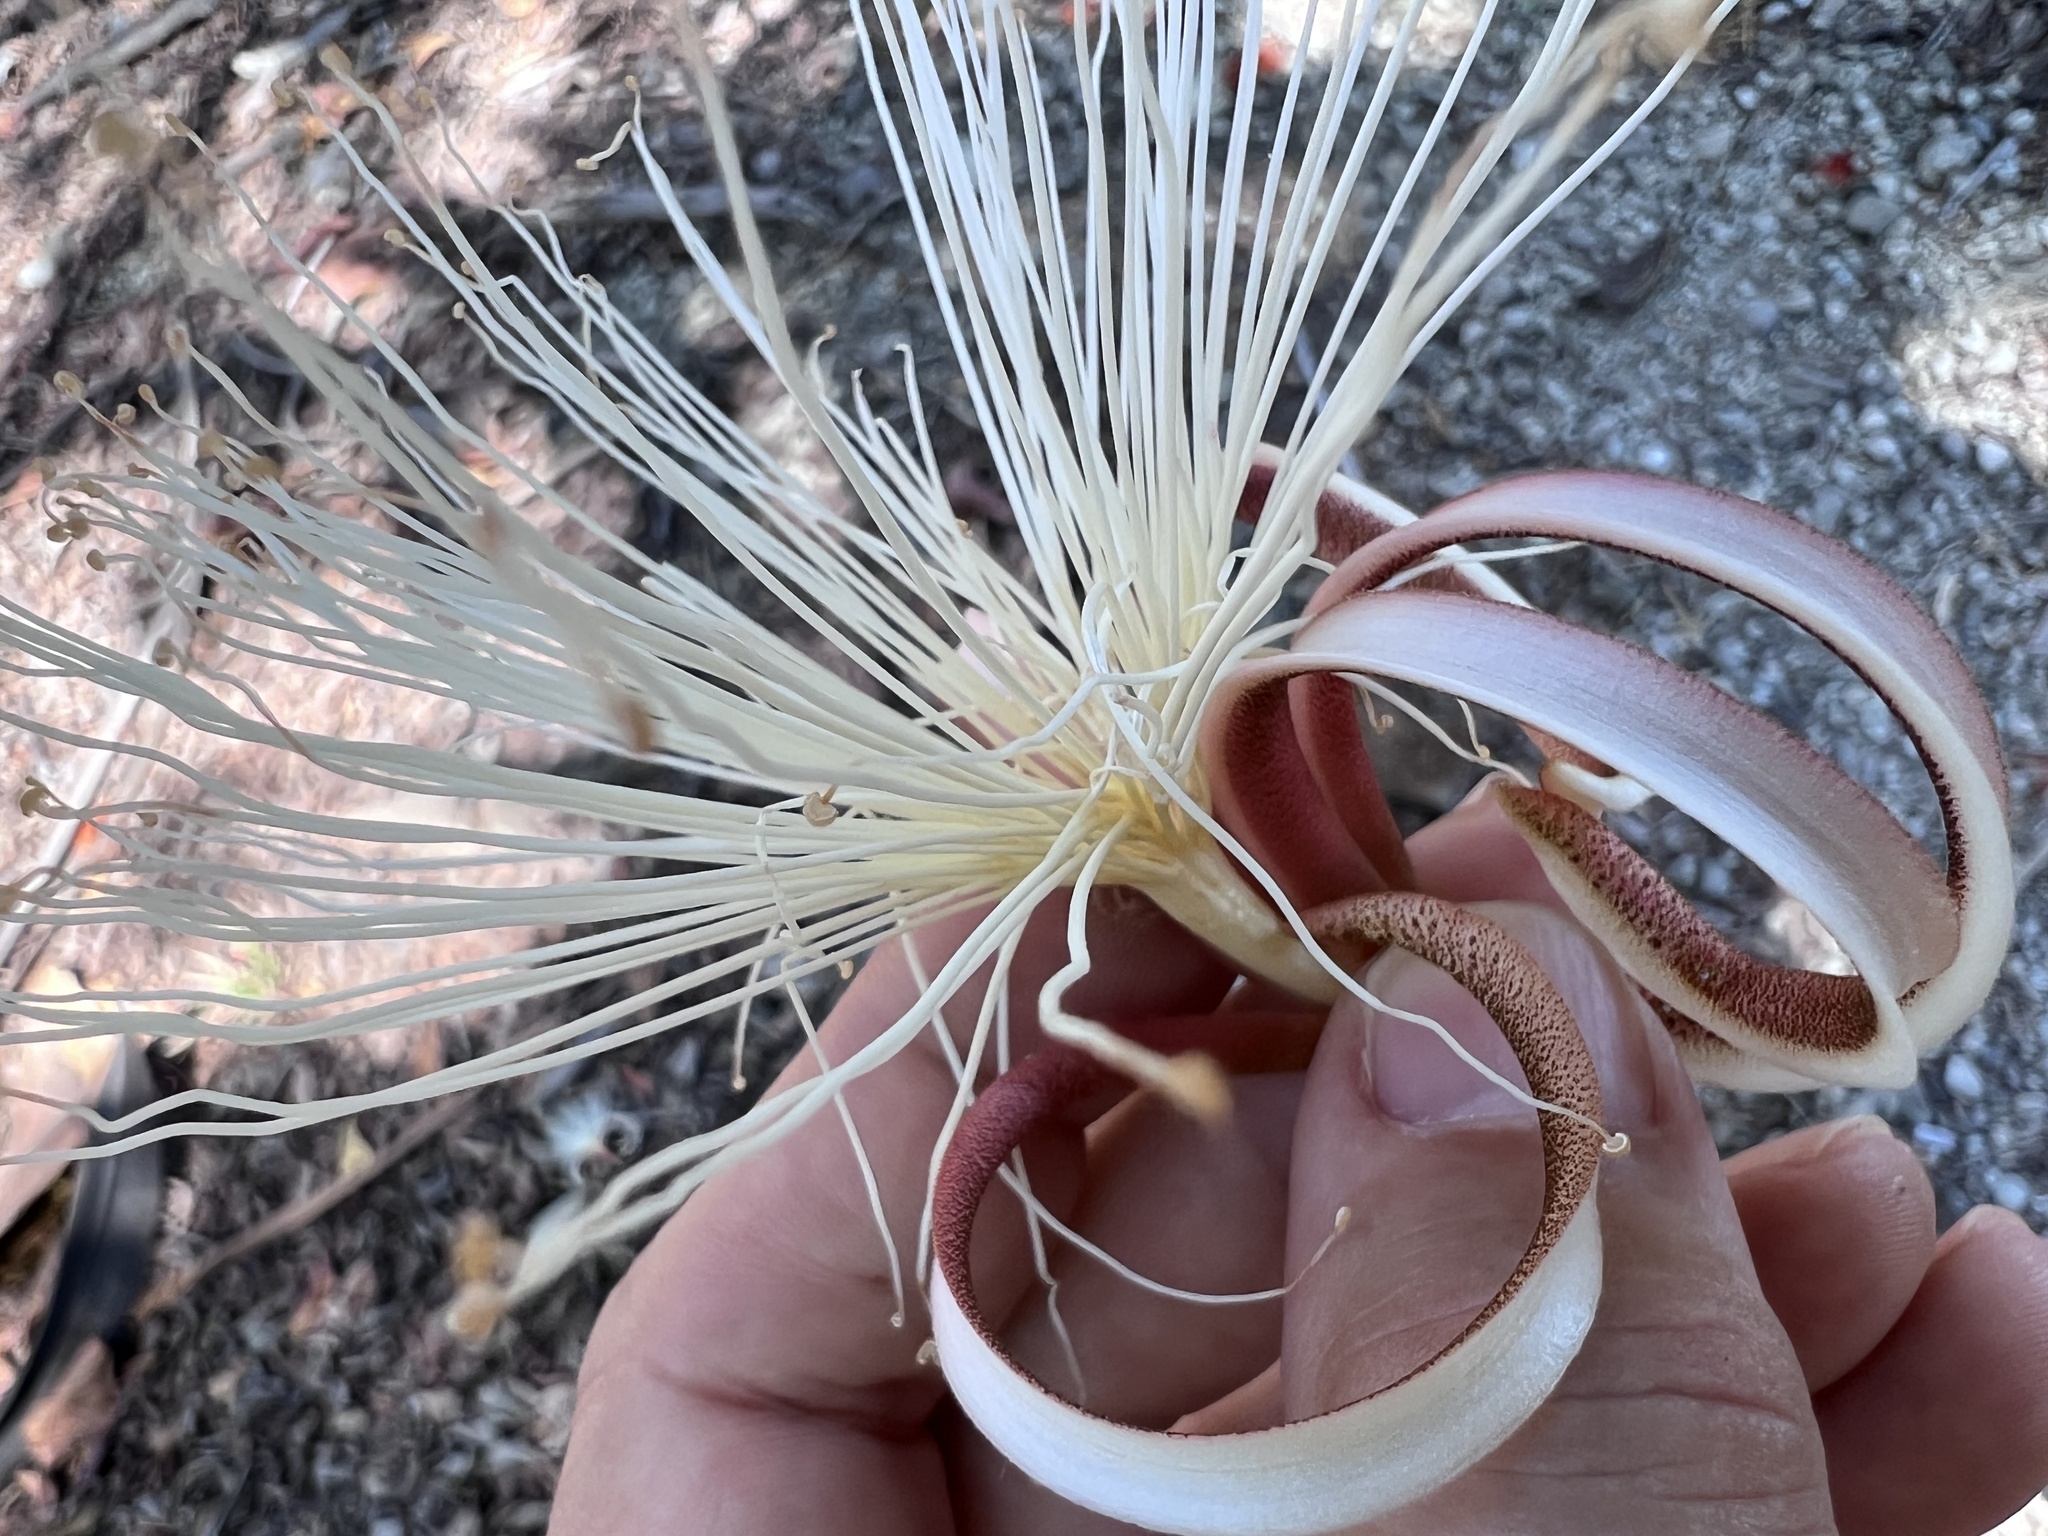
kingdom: Plantae
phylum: Tracheophyta
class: Magnoliopsida
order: Malvales
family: Malvaceae
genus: Pochota
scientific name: Pochota fendleri
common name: Chestnut
